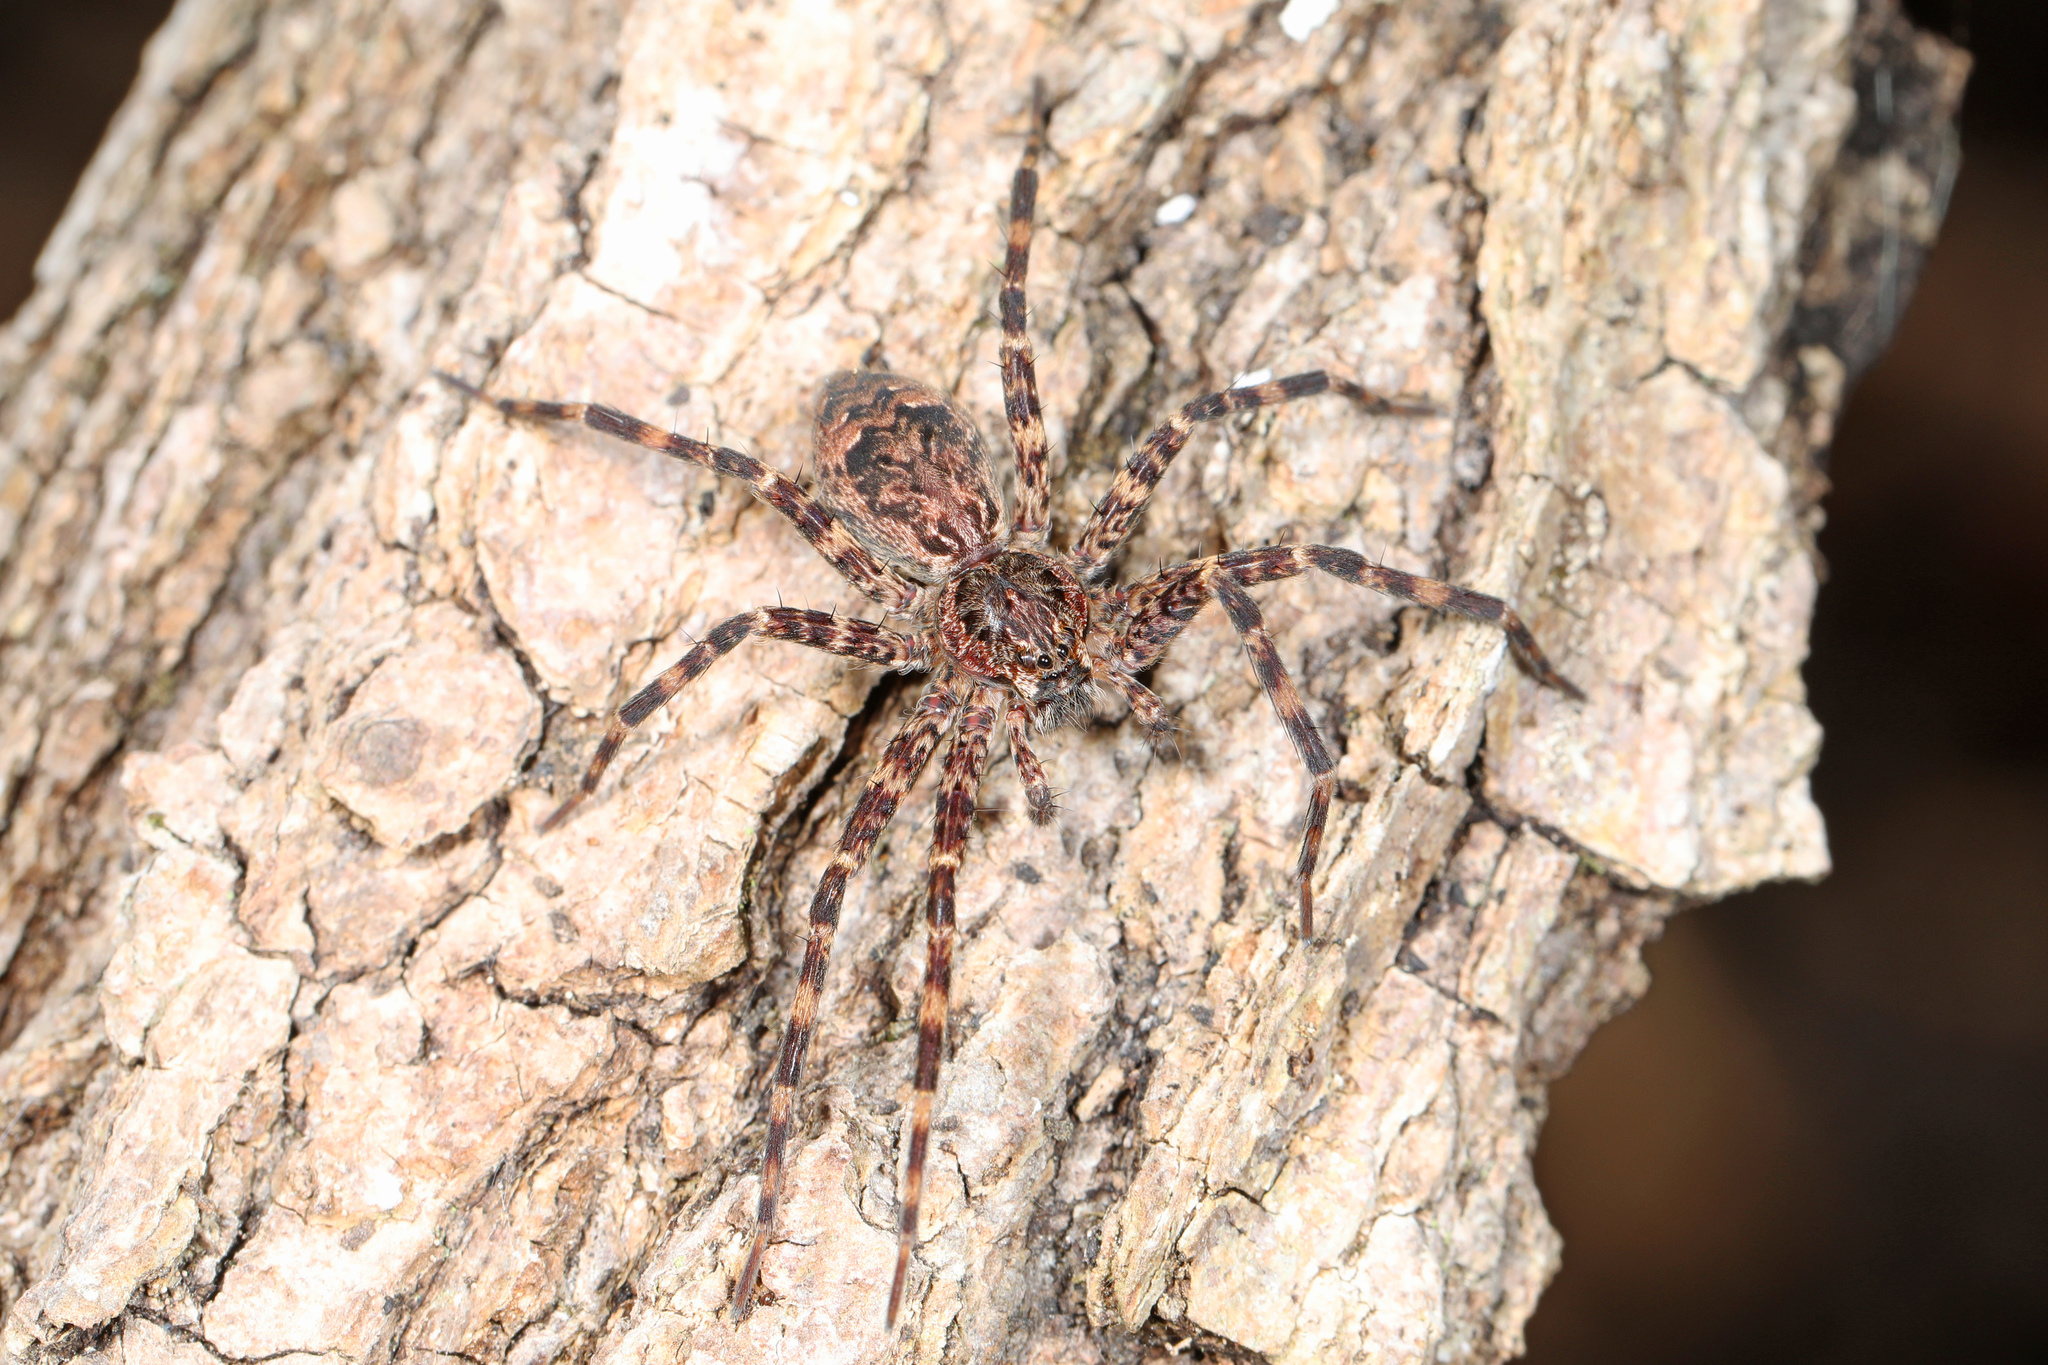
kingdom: Animalia
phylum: Arthropoda
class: Arachnida
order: Araneae
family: Pisauridae
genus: Dolomedes
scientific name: Dolomedes tenebrosus
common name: Dark fishing spider
